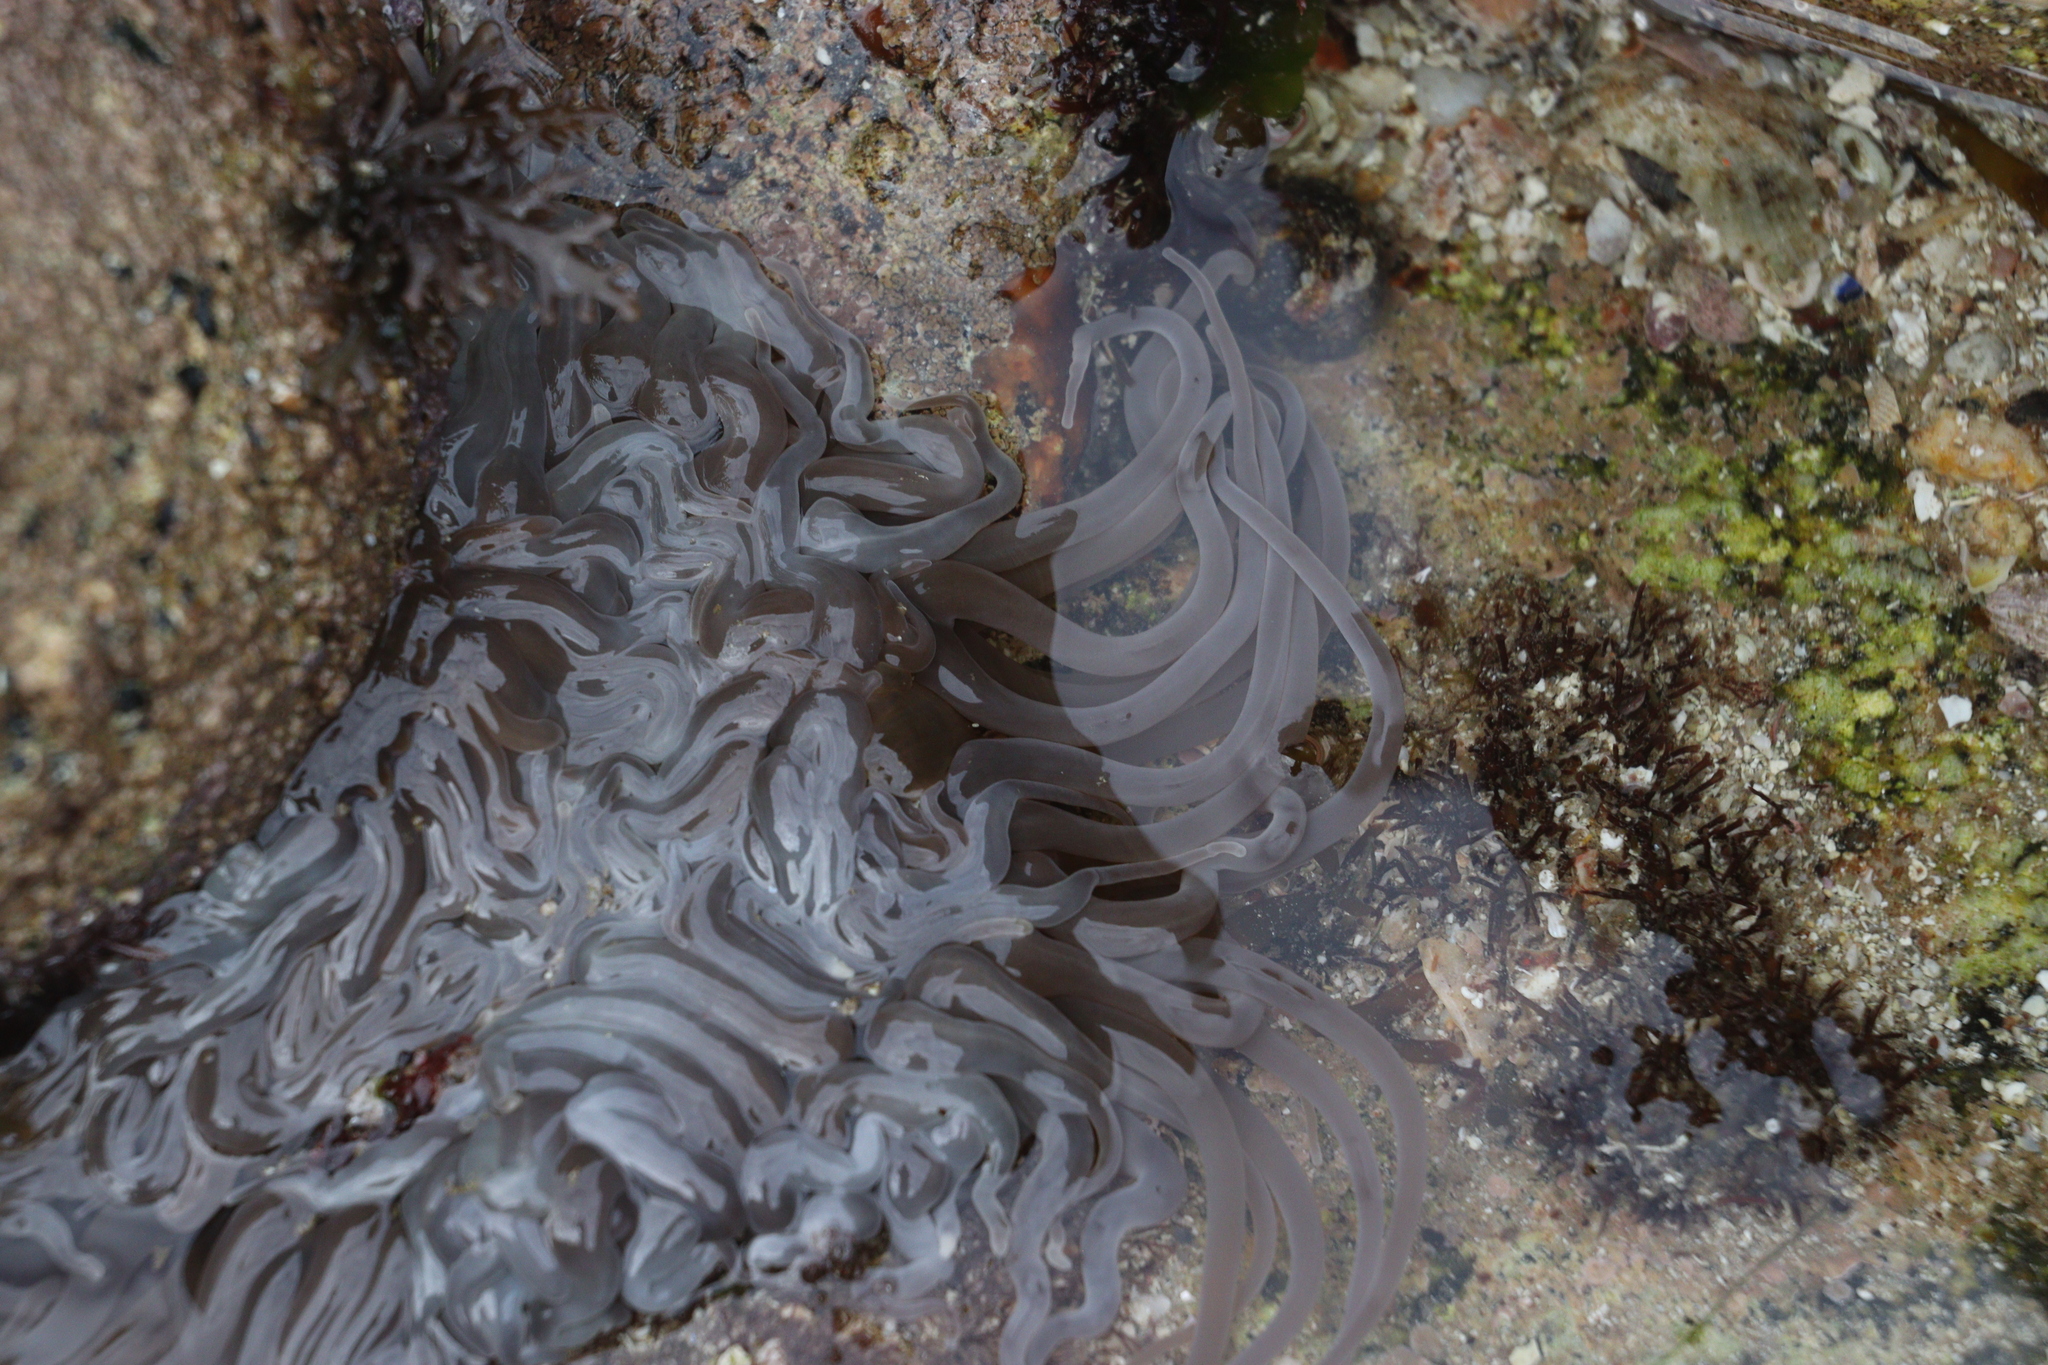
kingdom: Animalia
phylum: Cnidaria
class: Anthozoa
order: Actiniaria
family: Actiniidae
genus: Anemonia
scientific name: Anemonia viridis
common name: Snakelocks anemone
